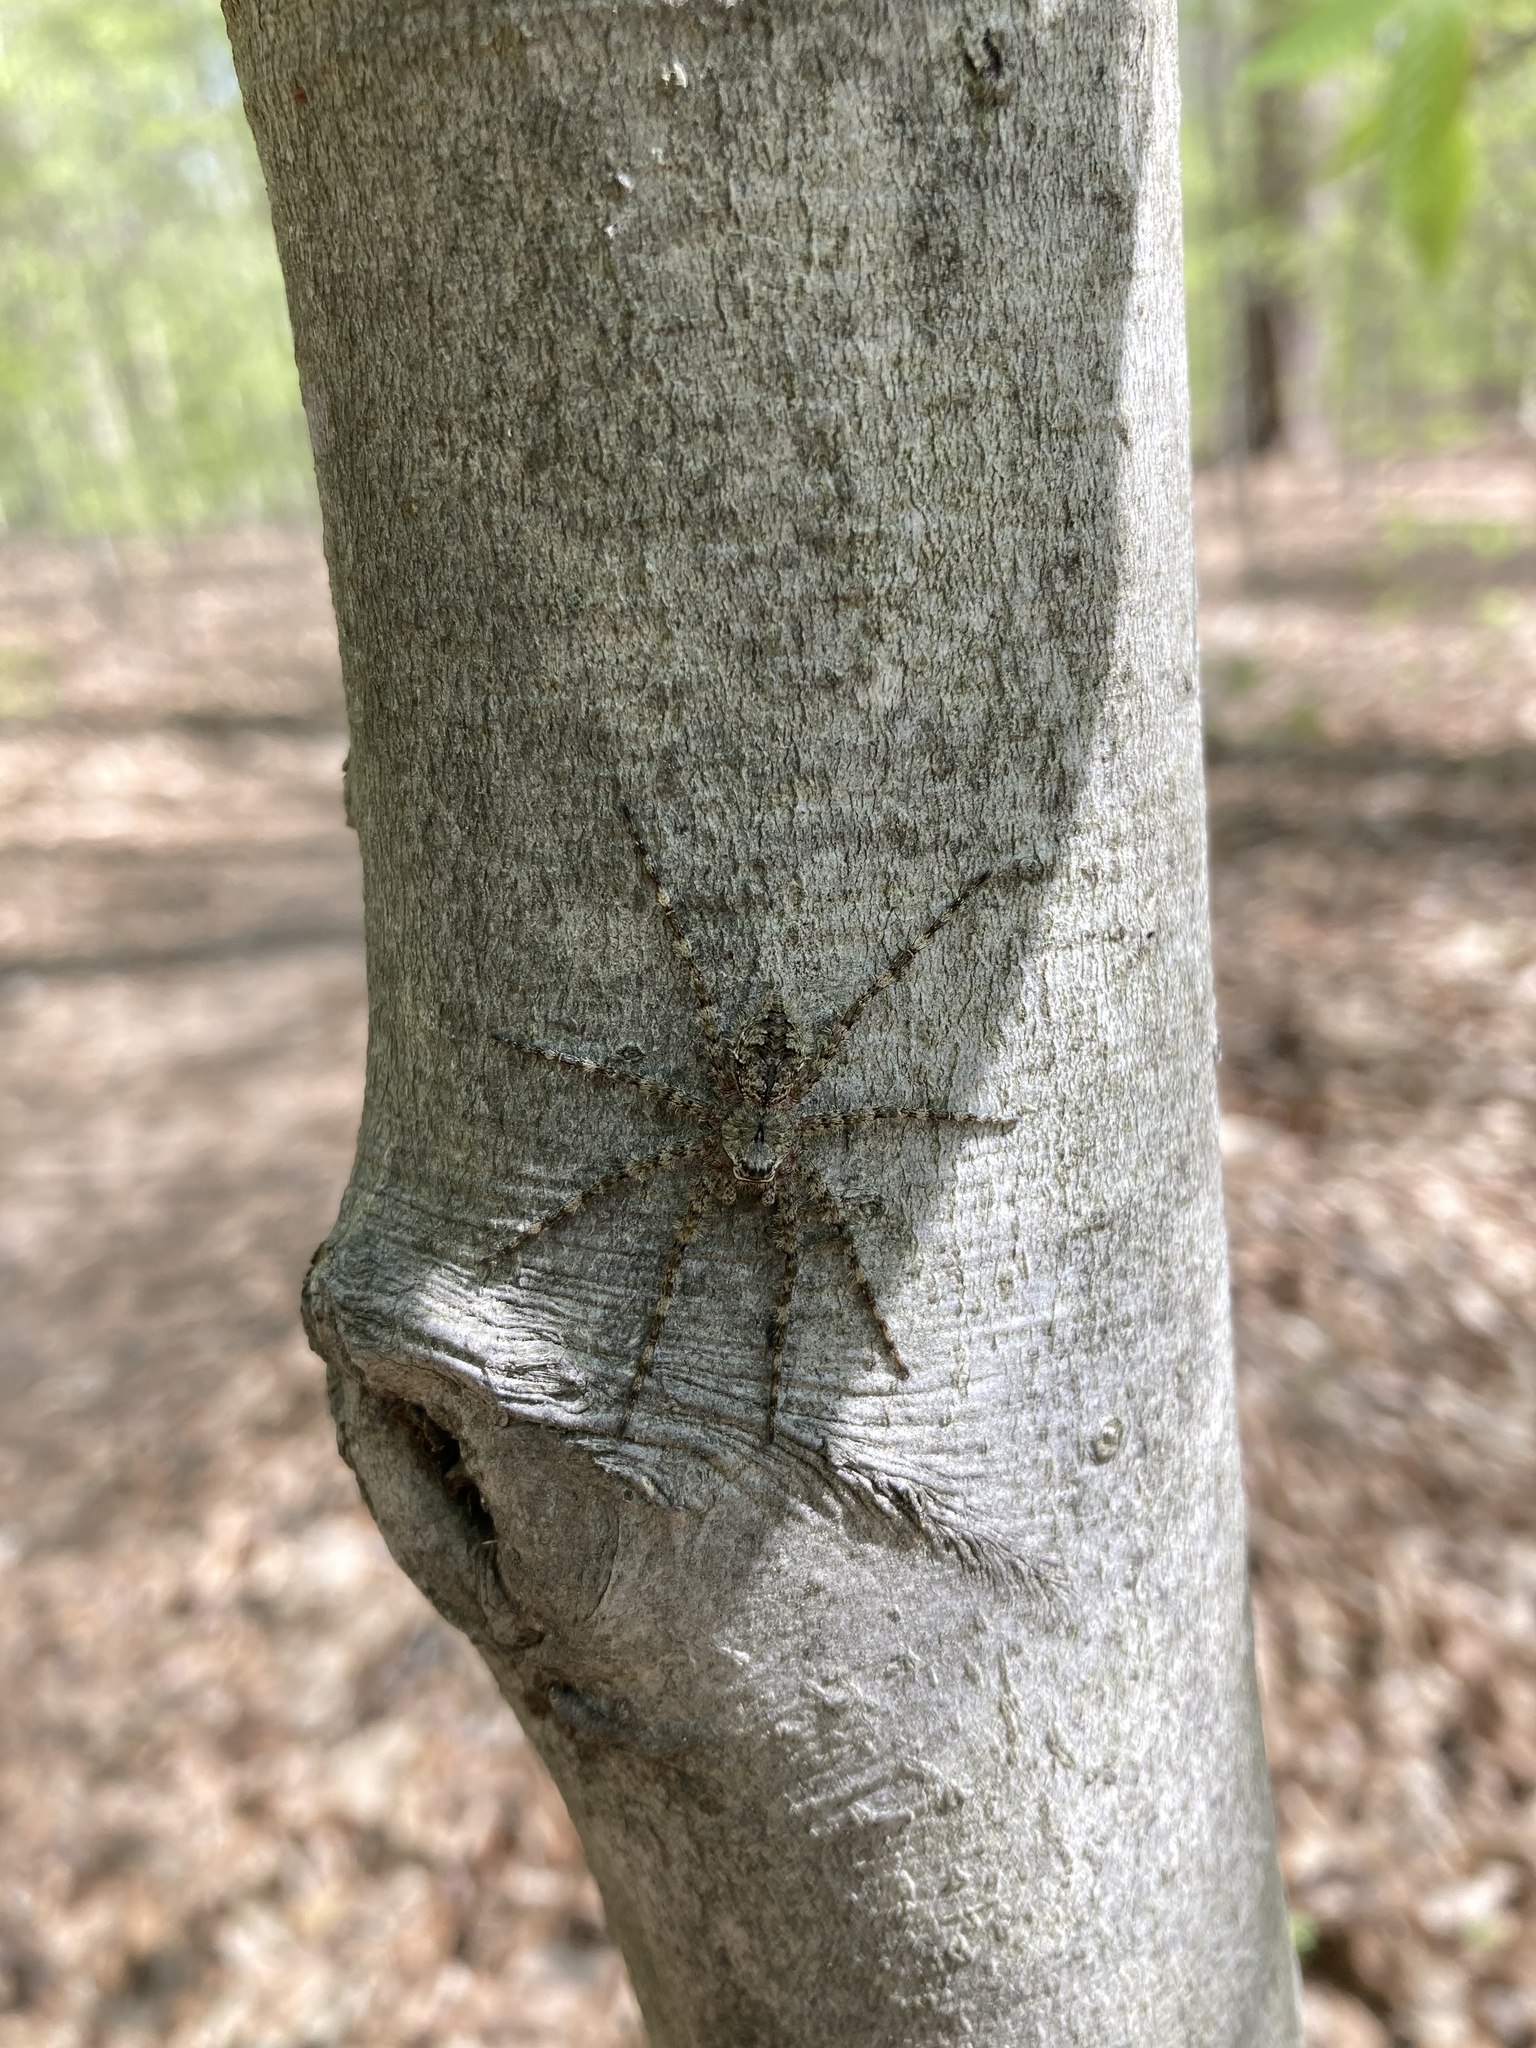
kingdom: Animalia
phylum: Arthropoda
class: Arachnida
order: Araneae
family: Pisauridae
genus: Dolomedes
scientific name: Dolomedes albineus
